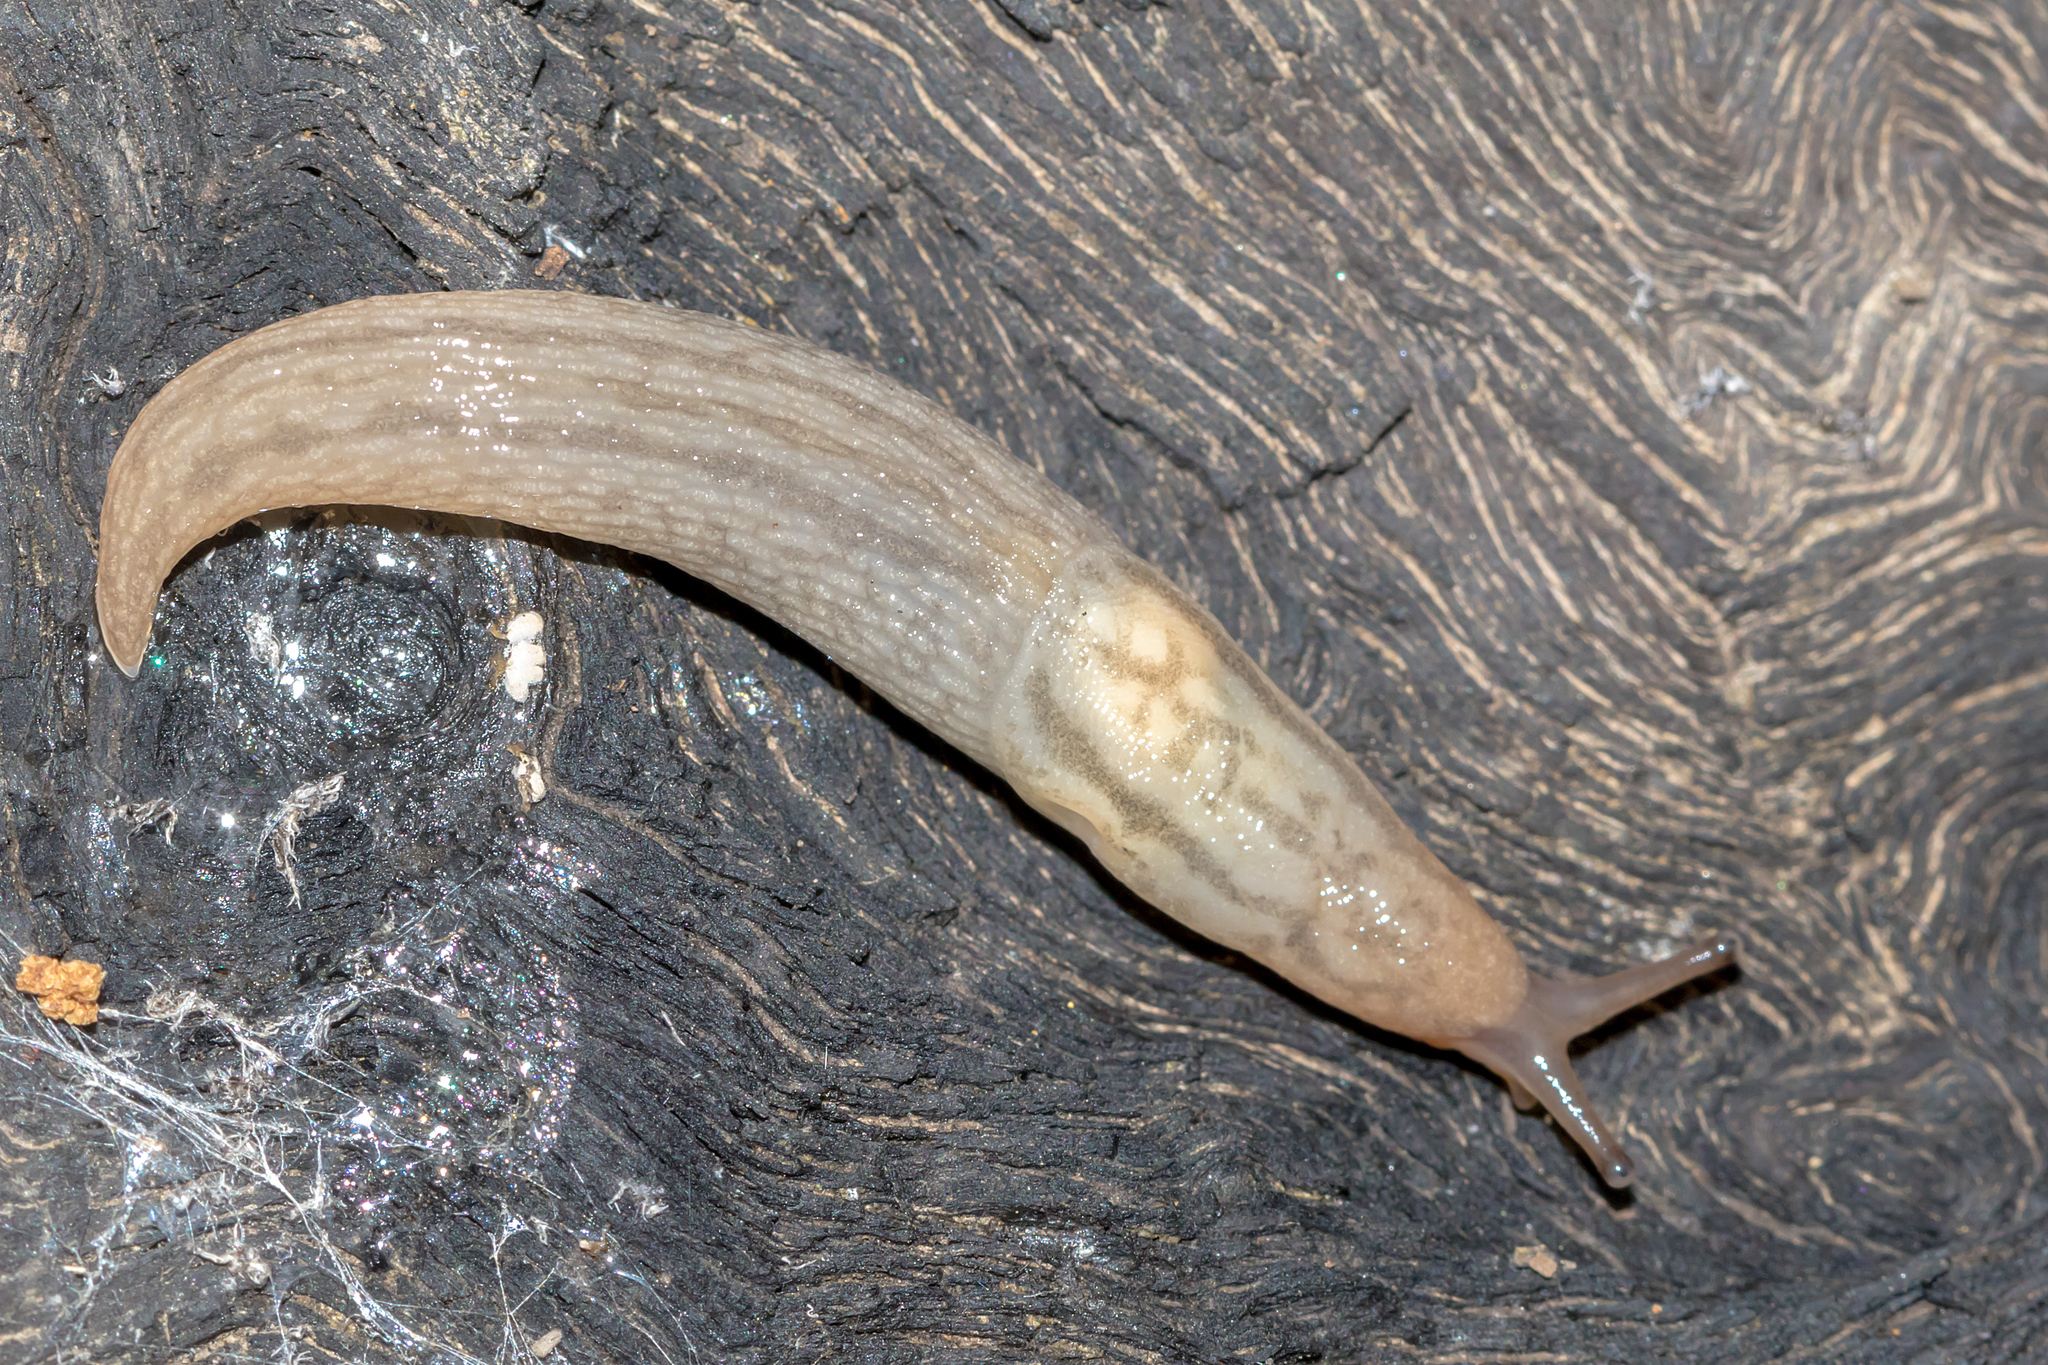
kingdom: Animalia
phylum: Mollusca
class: Gastropoda
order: Stylommatophora
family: Limacidae
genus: Ambigolimax
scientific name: Ambigolimax
